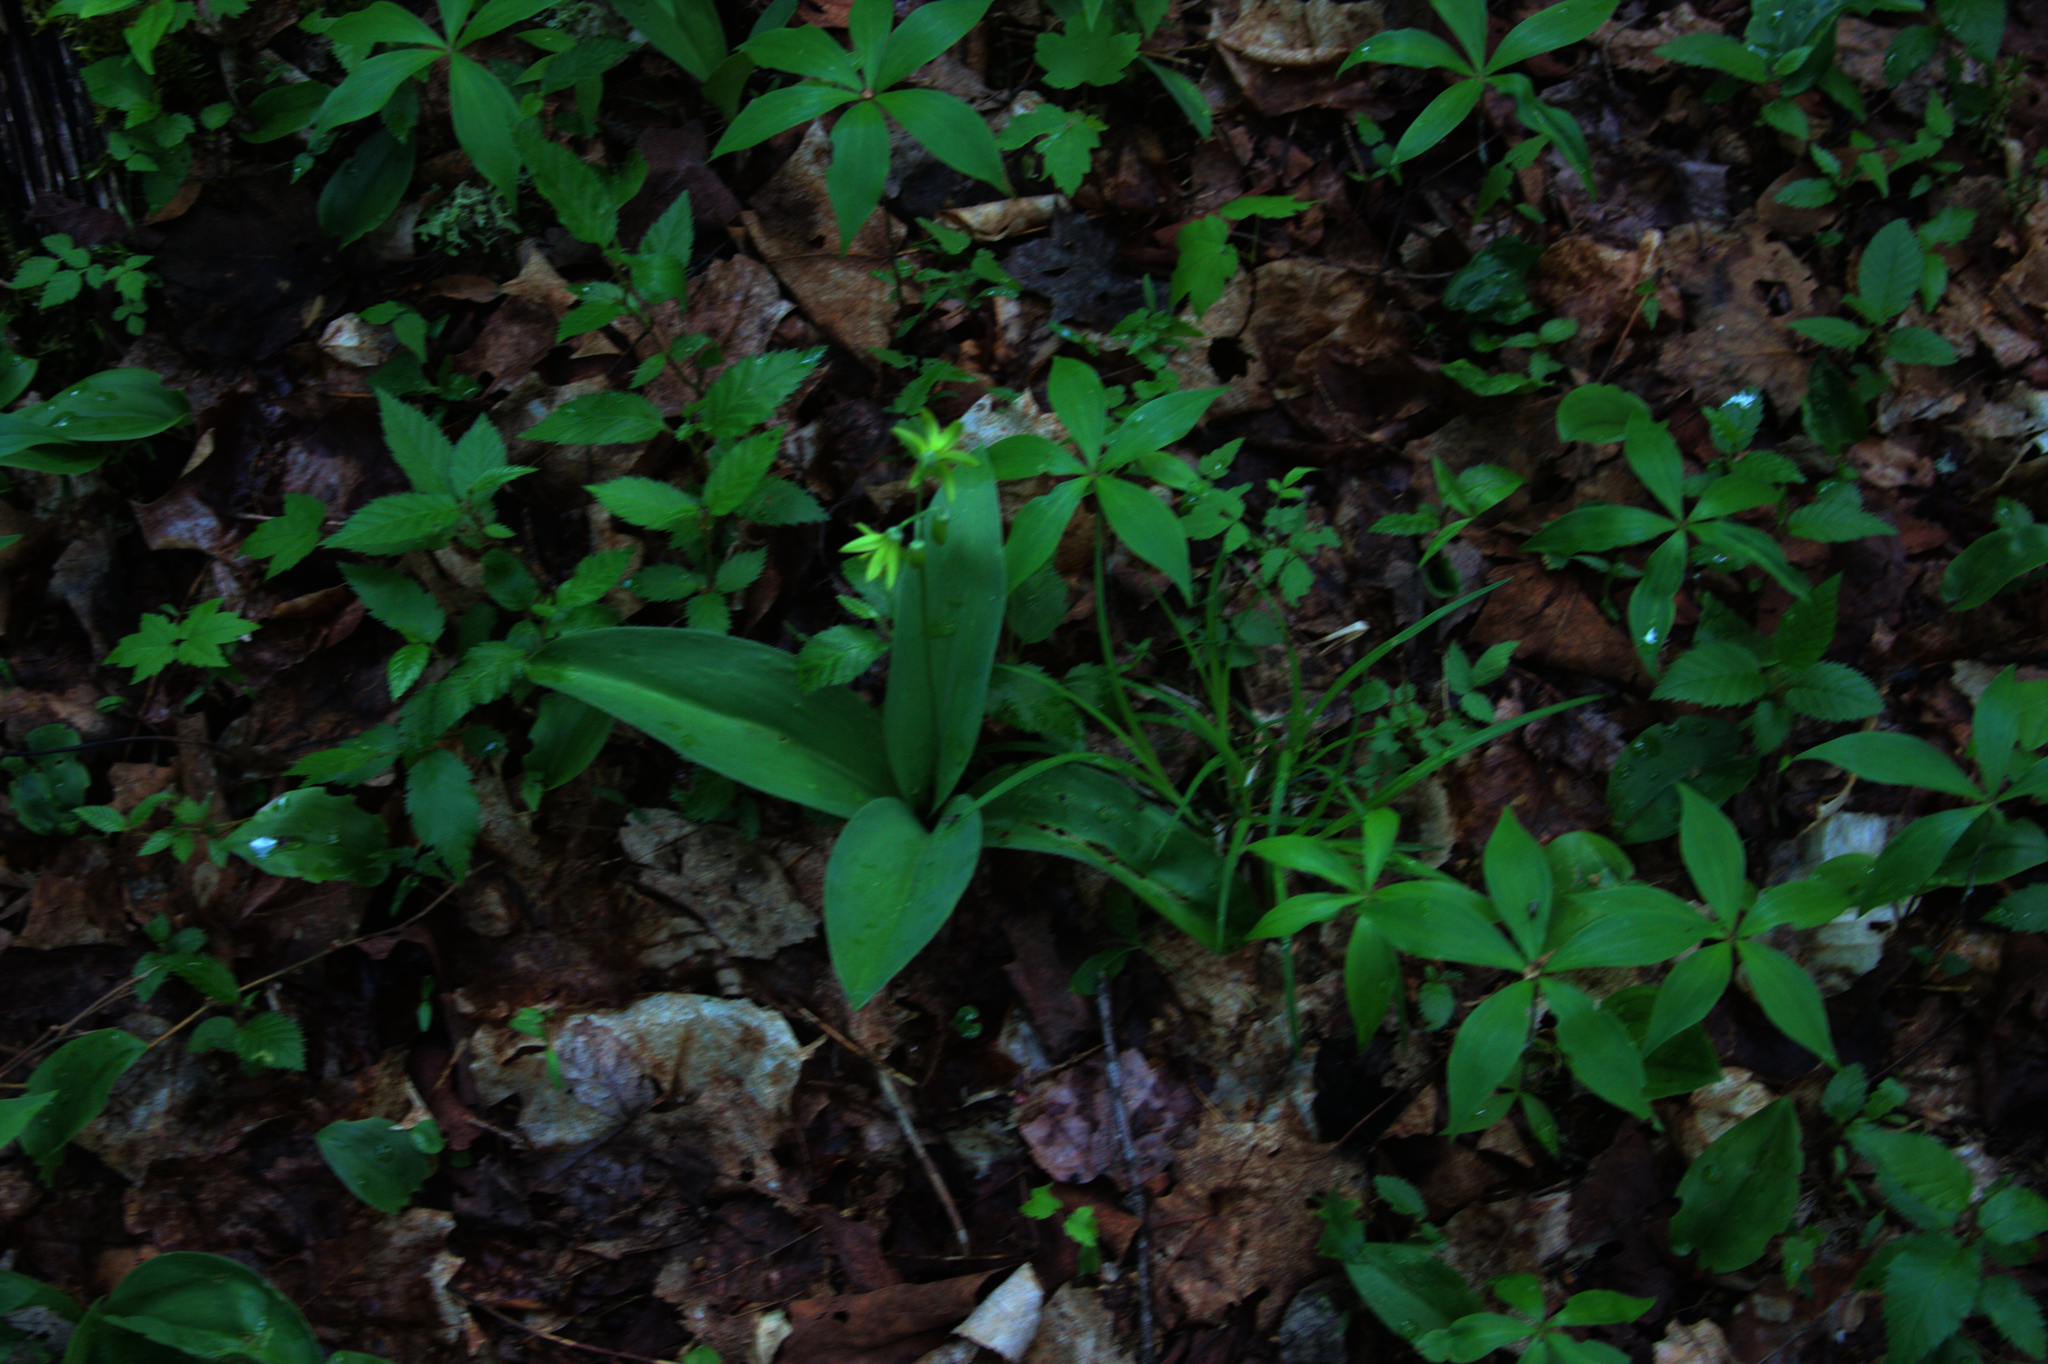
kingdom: Plantae
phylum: Tracheophyta
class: Liliopsida
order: Liliales
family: Liliaceae
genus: Clintonia
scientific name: Clintonia borealis
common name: Yellow clintonia
